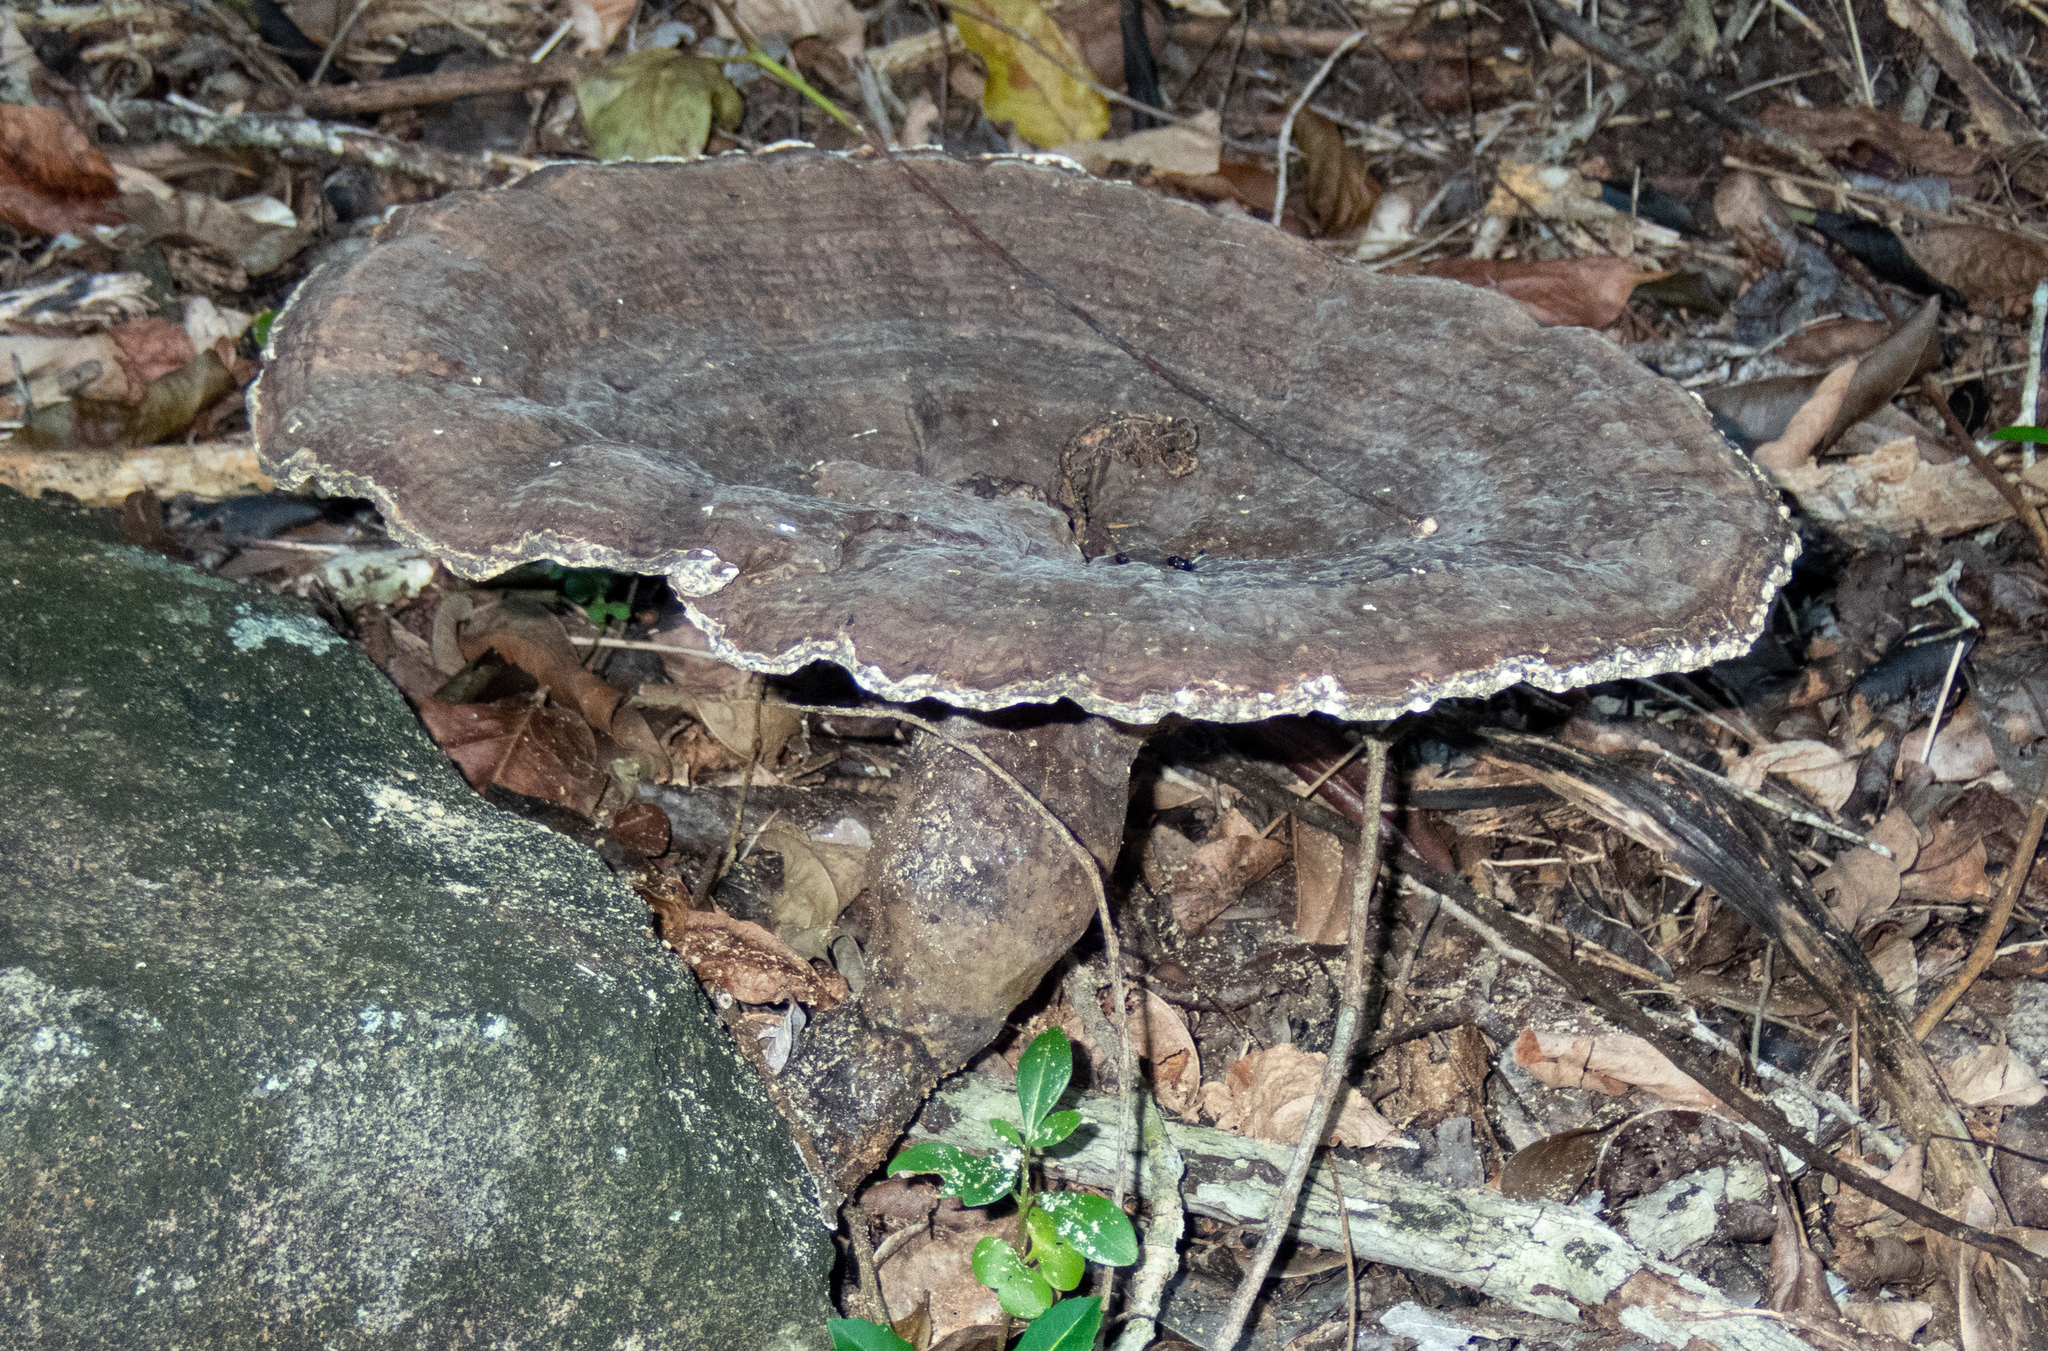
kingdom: Fungi
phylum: Basidiomycota
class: Agaricomycetes
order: Polyporales
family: Laetiporaceae
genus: Kusaghiporia
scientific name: Kusaghiporia talpae
